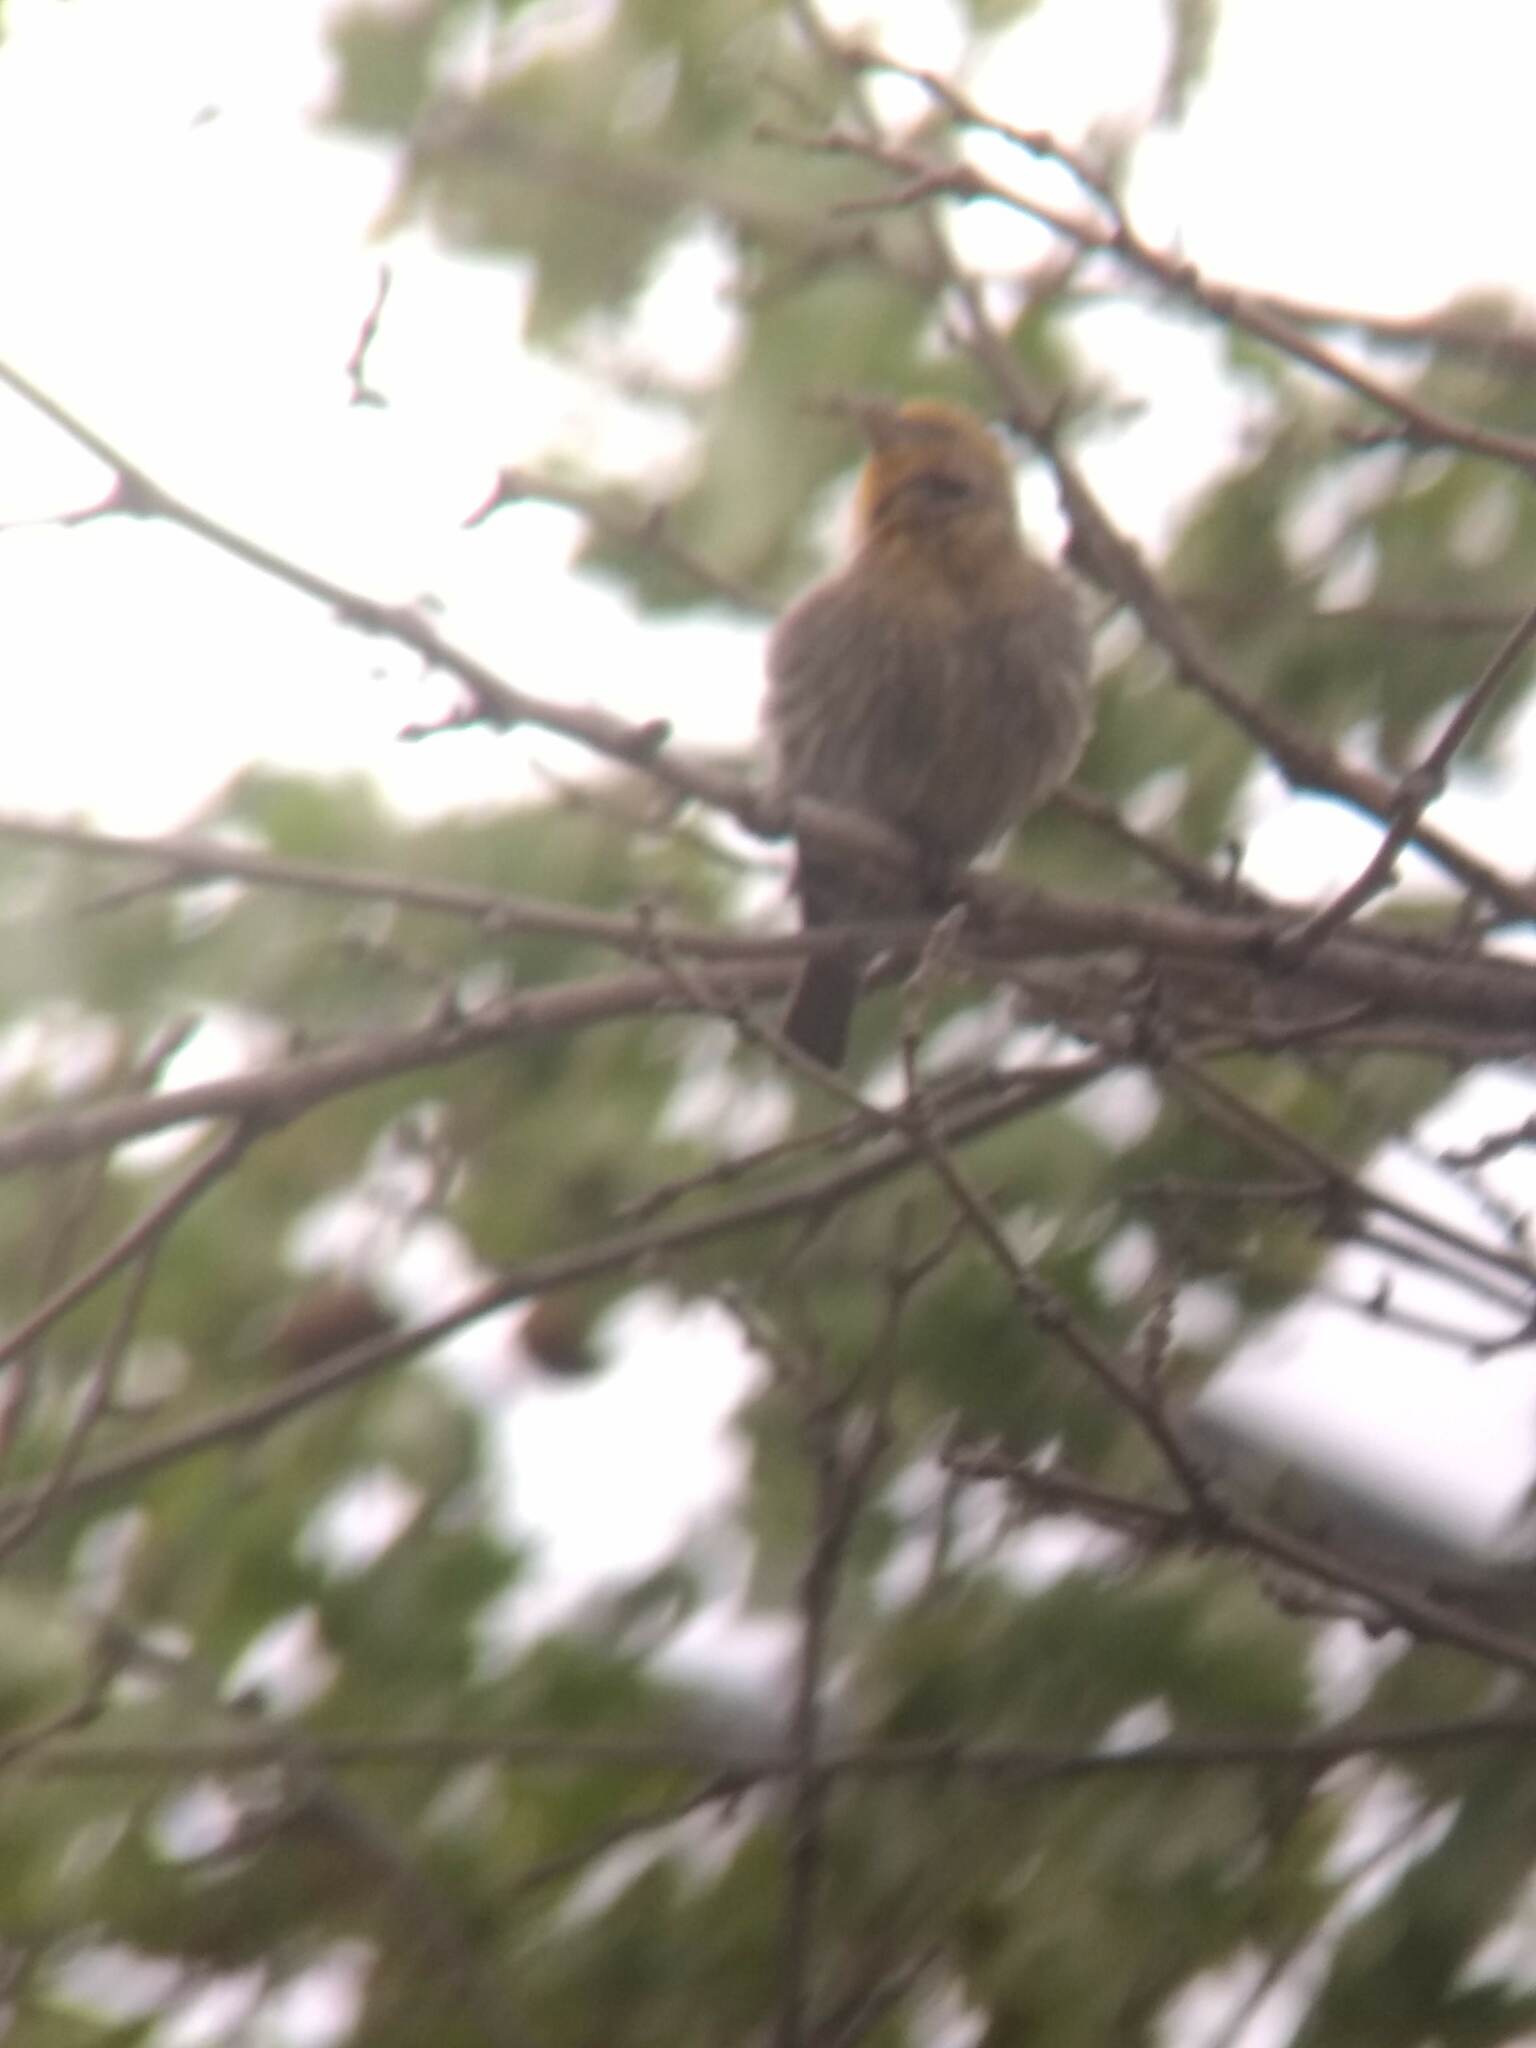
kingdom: Animalia
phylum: Chordata
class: Aves
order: Passeriformes
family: Fringillidae
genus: Haemorhous
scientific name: Haemorhous mexicanus
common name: House finch
